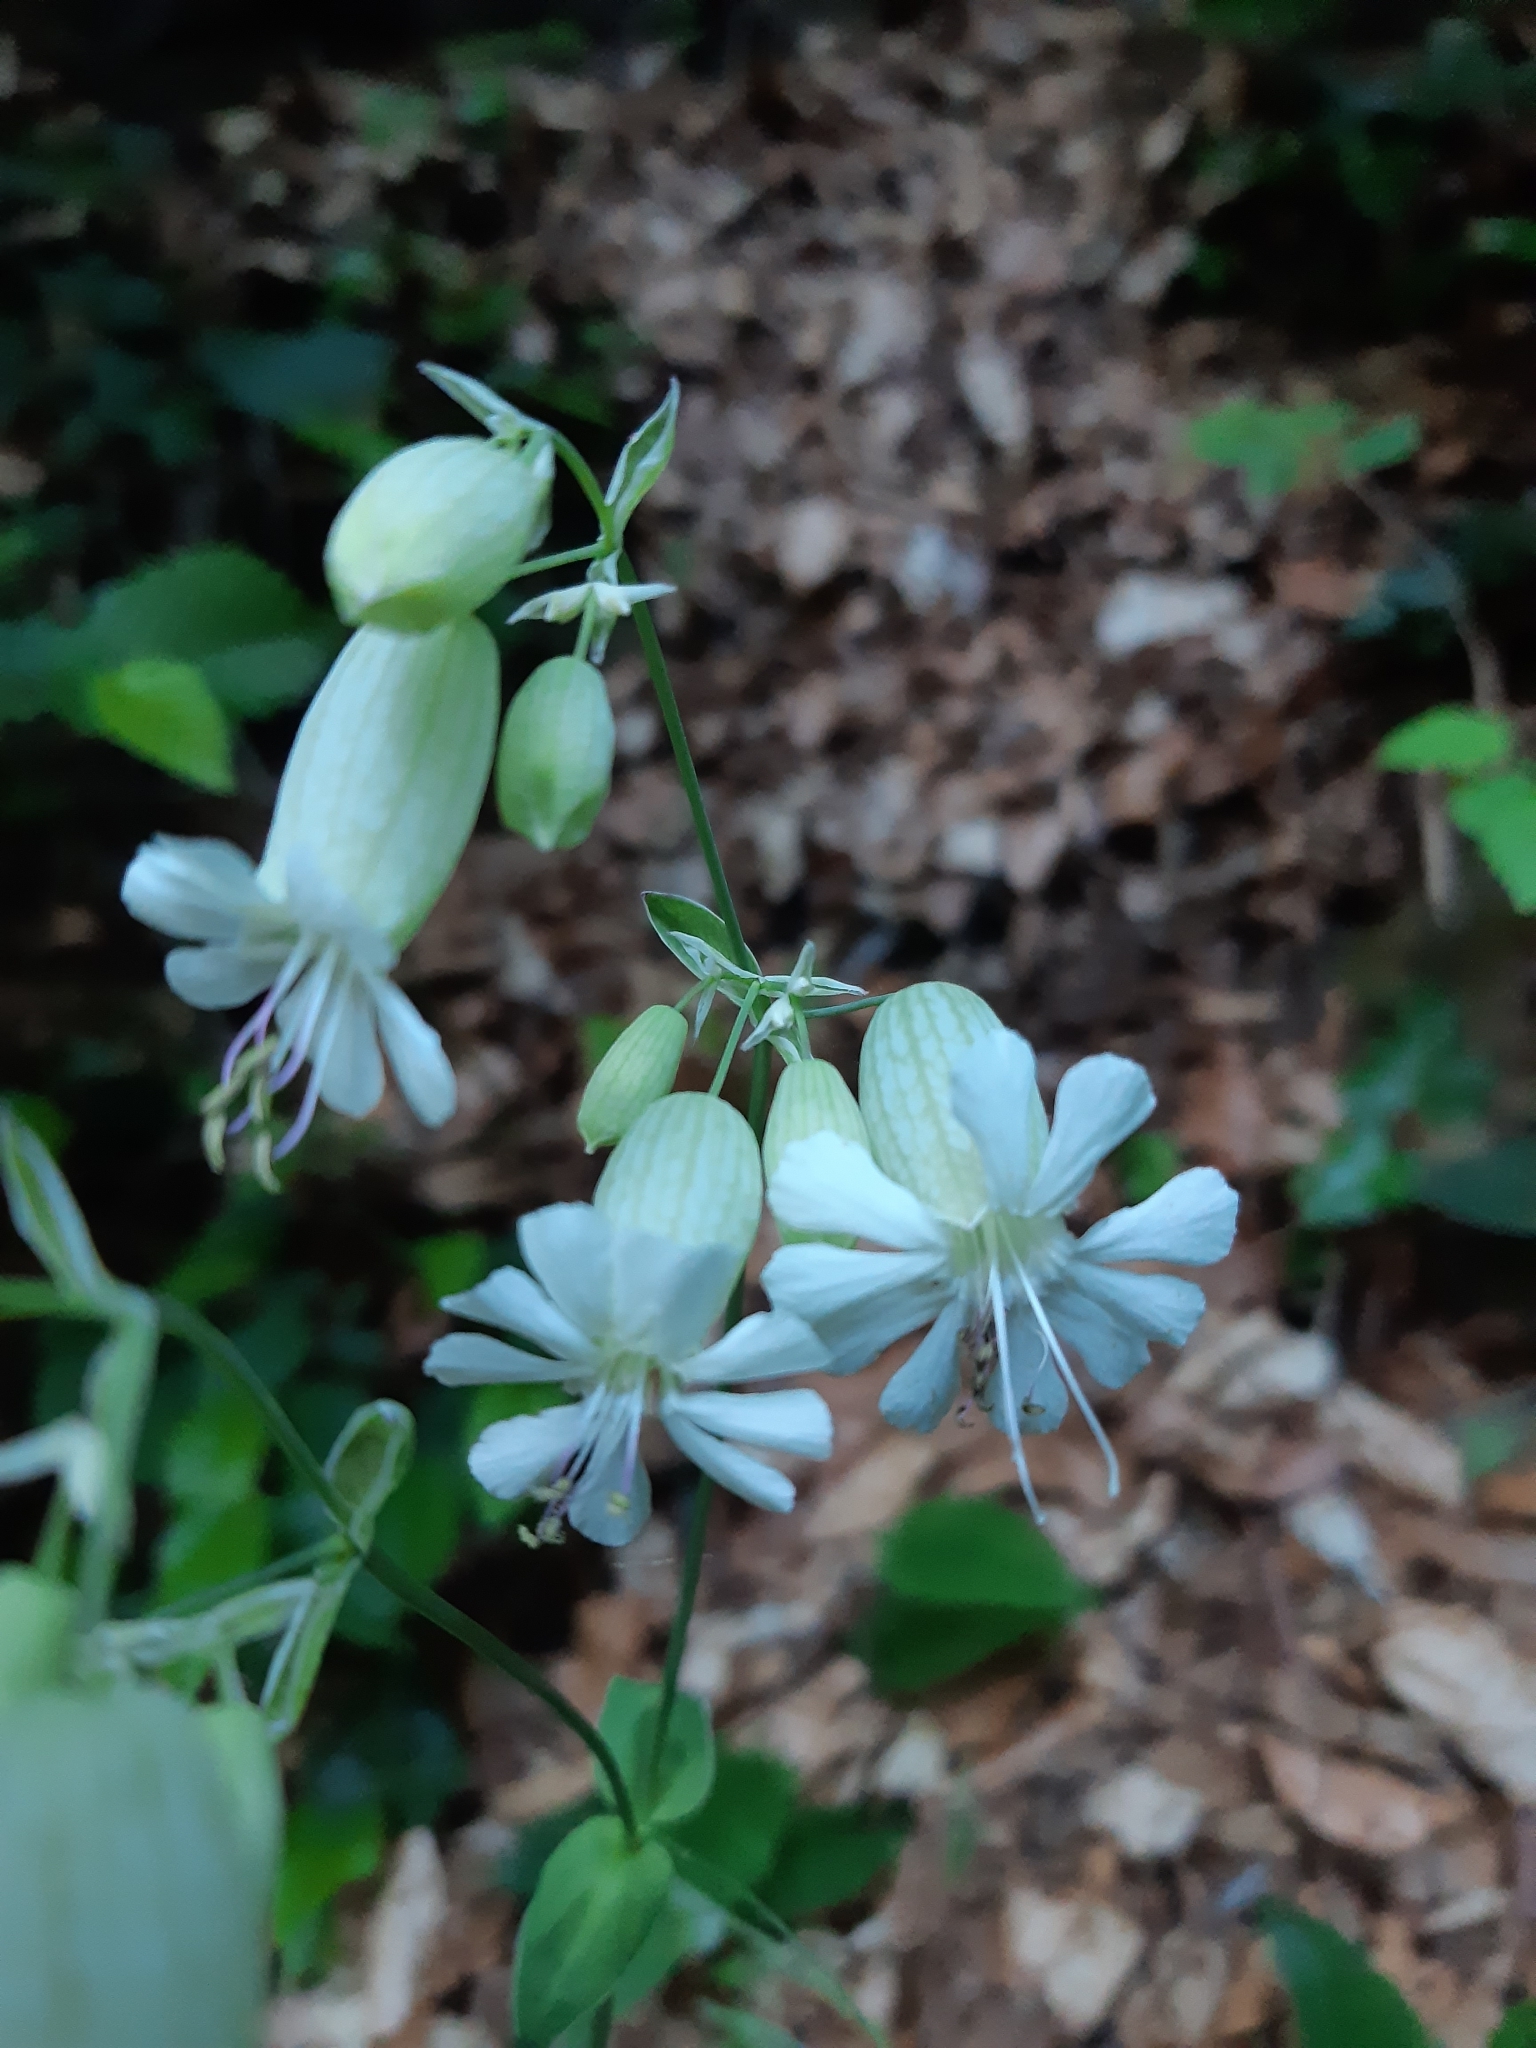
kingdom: Plantae
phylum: Tracheophyta
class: Magnoliopsida
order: Caryophyllales
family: Caryophyllaceae
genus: Silene
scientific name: Silene vulgaris
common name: Bladder campion
